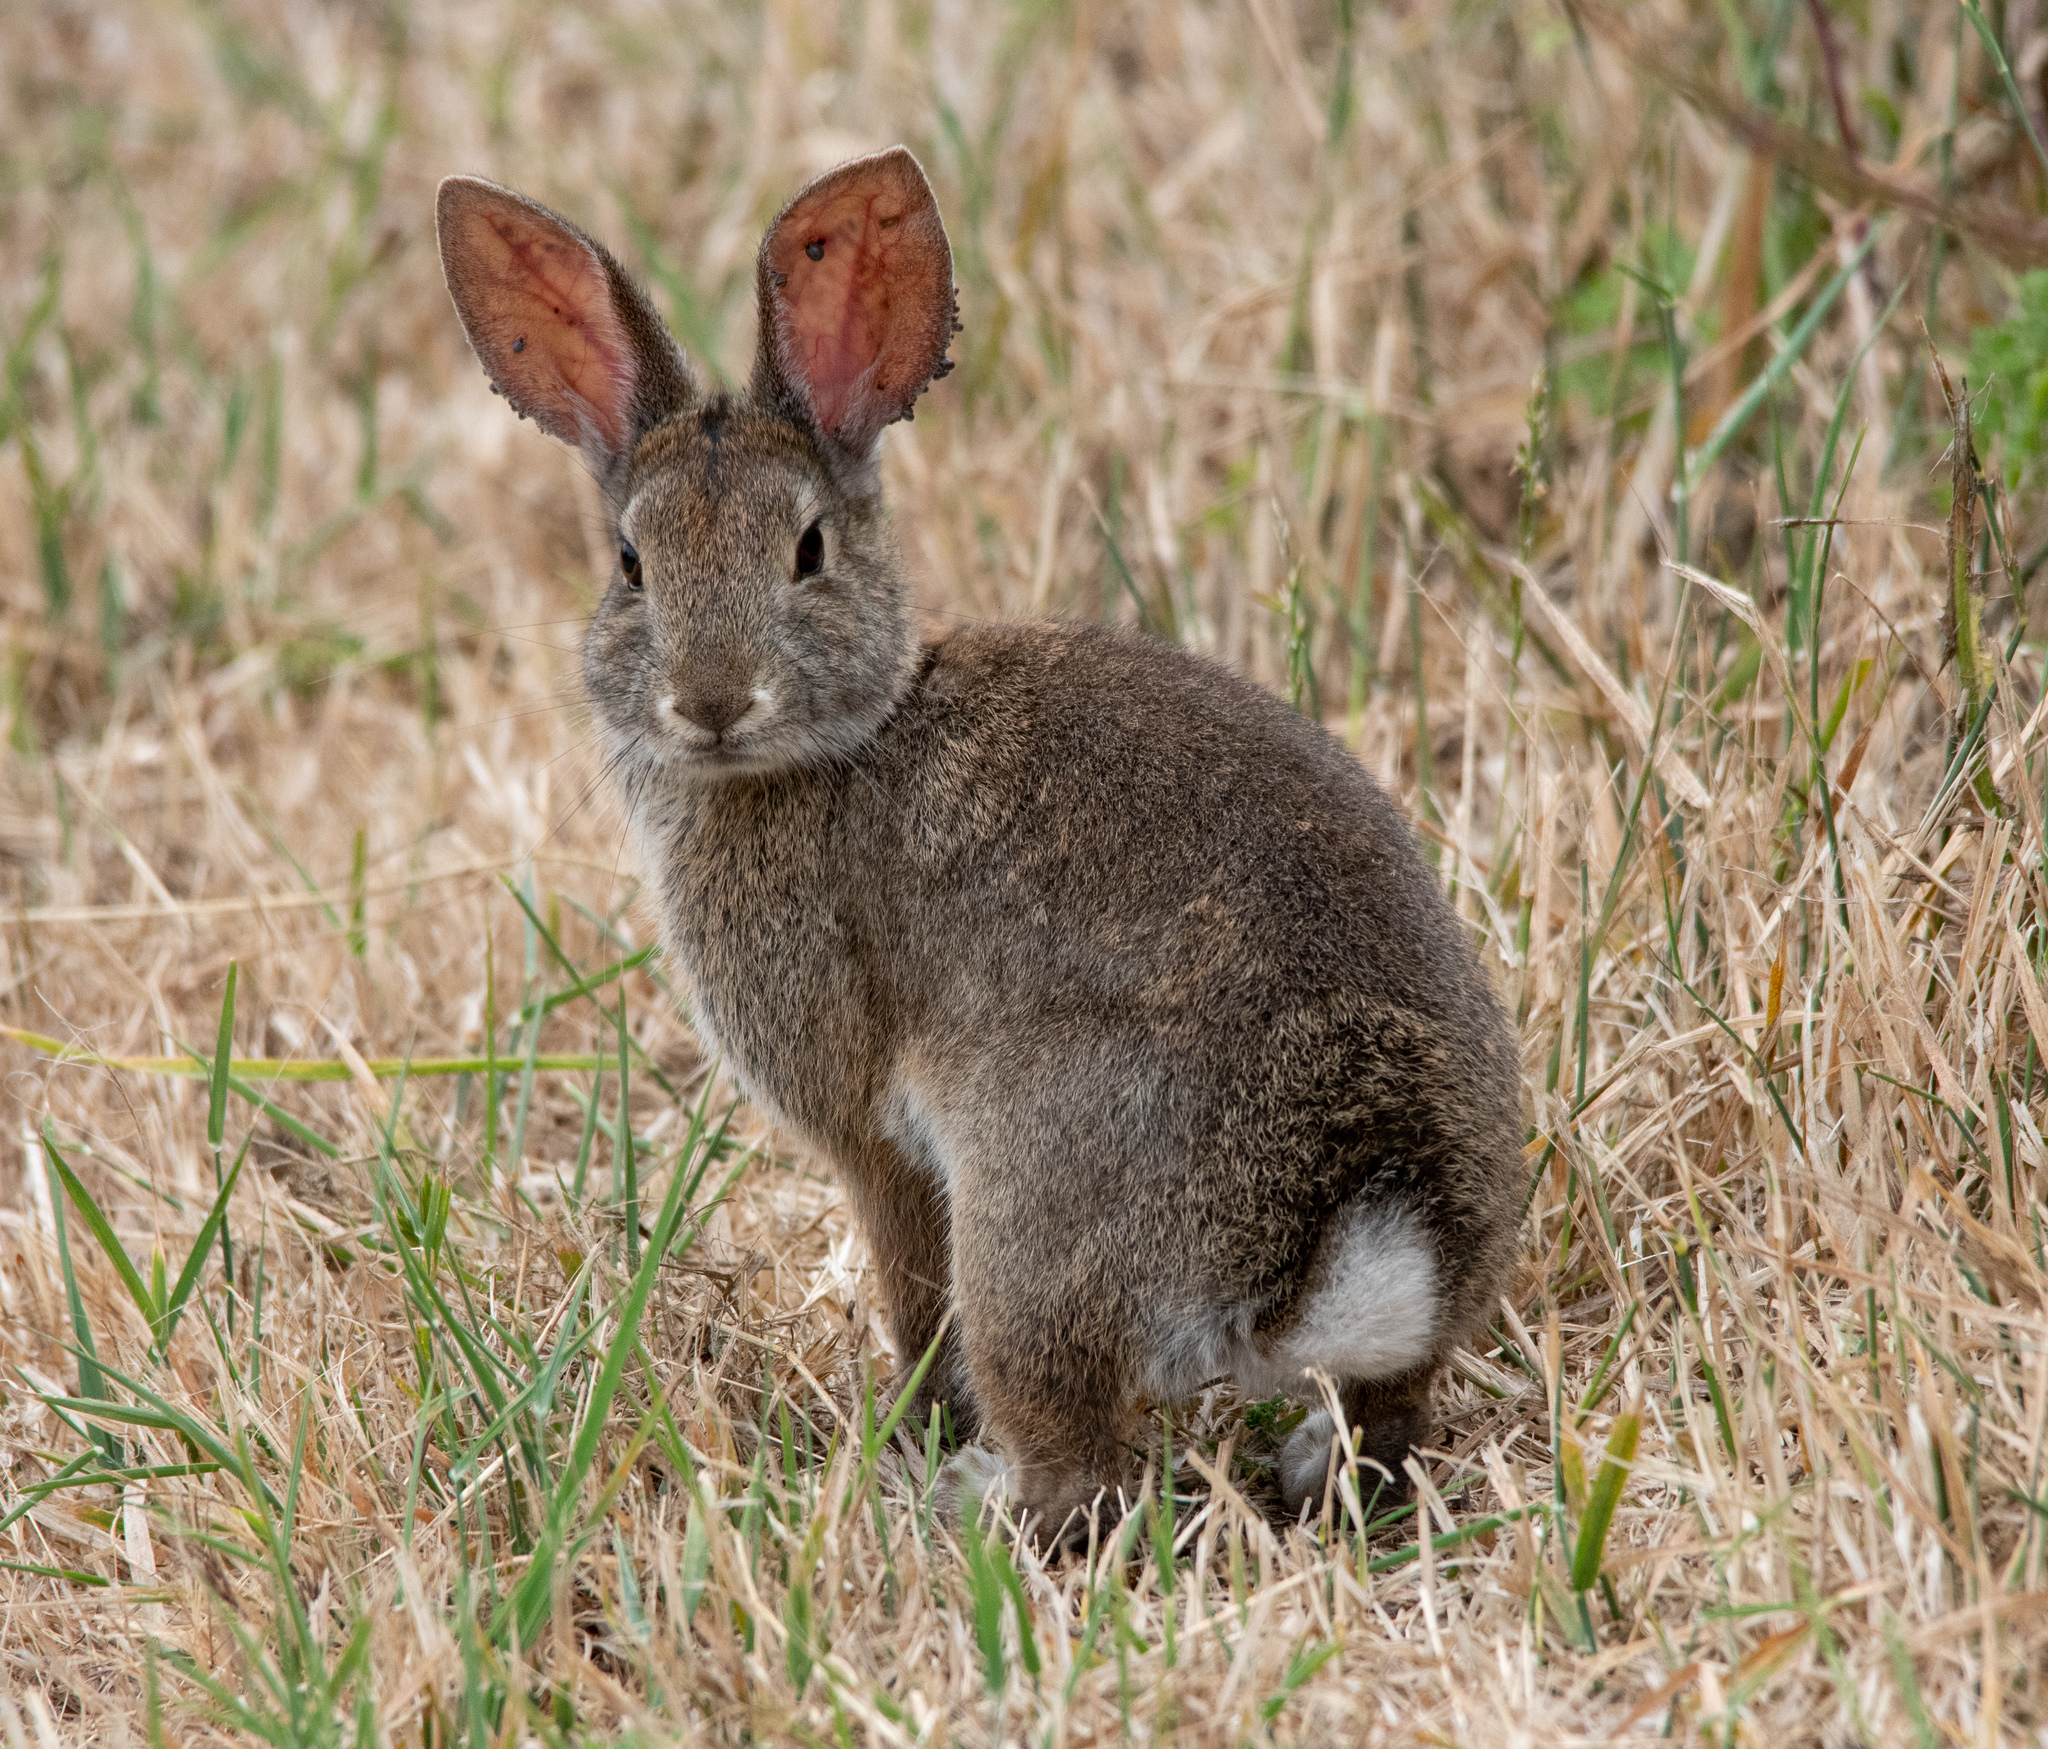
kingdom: Animalia
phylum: Chordata
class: Mammalia
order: Lagomorpha
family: Leporidae
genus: Sylvilagus
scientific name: Sylvilagus bachmani
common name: Brush rabbit
